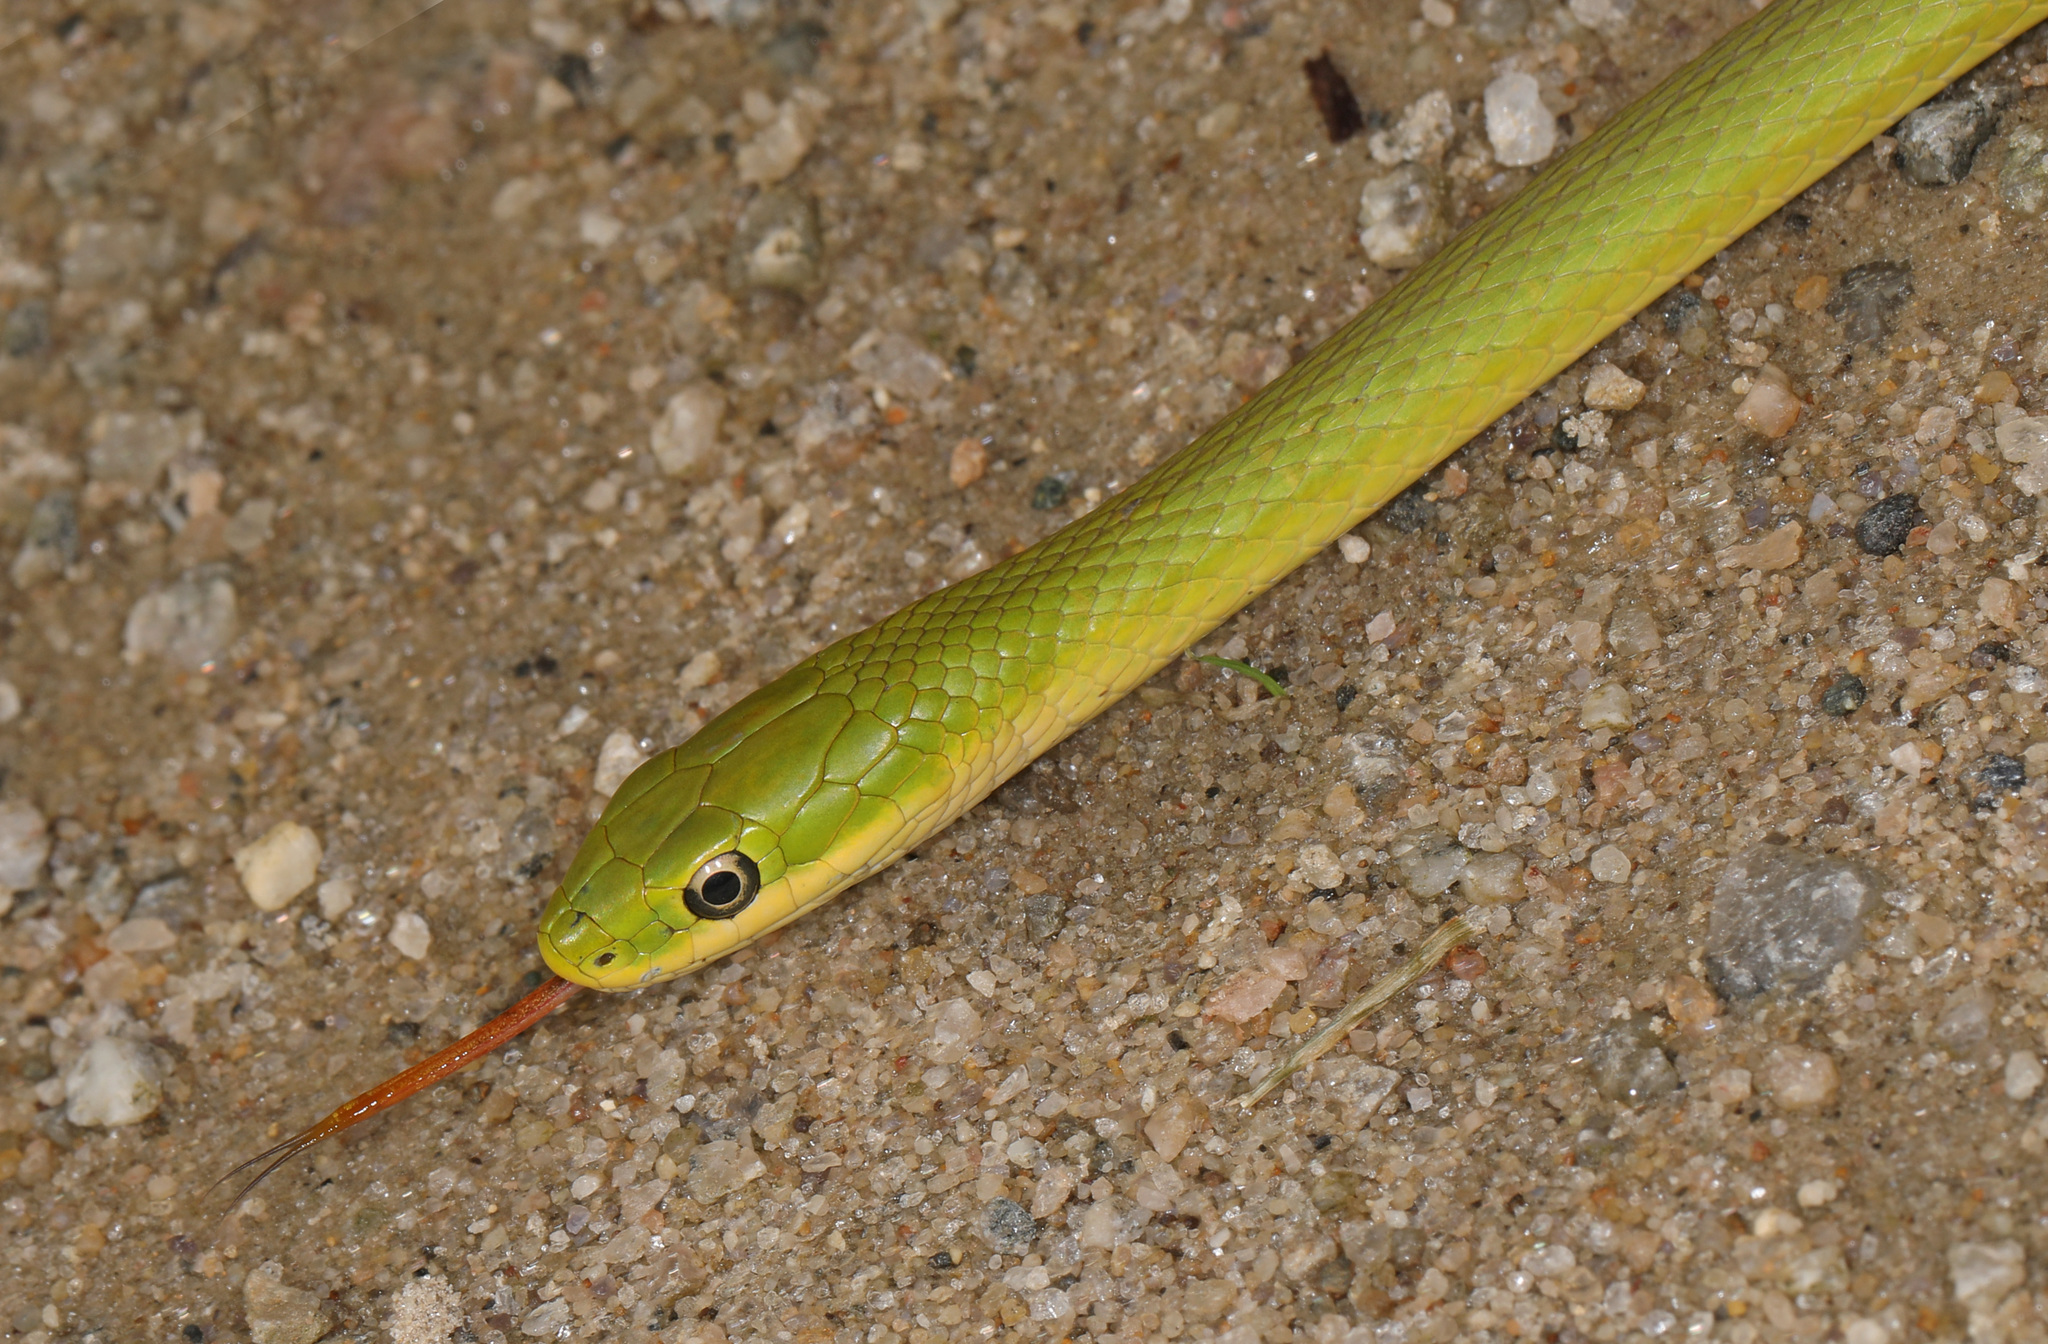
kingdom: Animalia
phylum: Chordata
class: Squamata
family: Colubridae
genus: Opheodrys
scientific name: Opheodrys aestivus
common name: Rough greensnake
